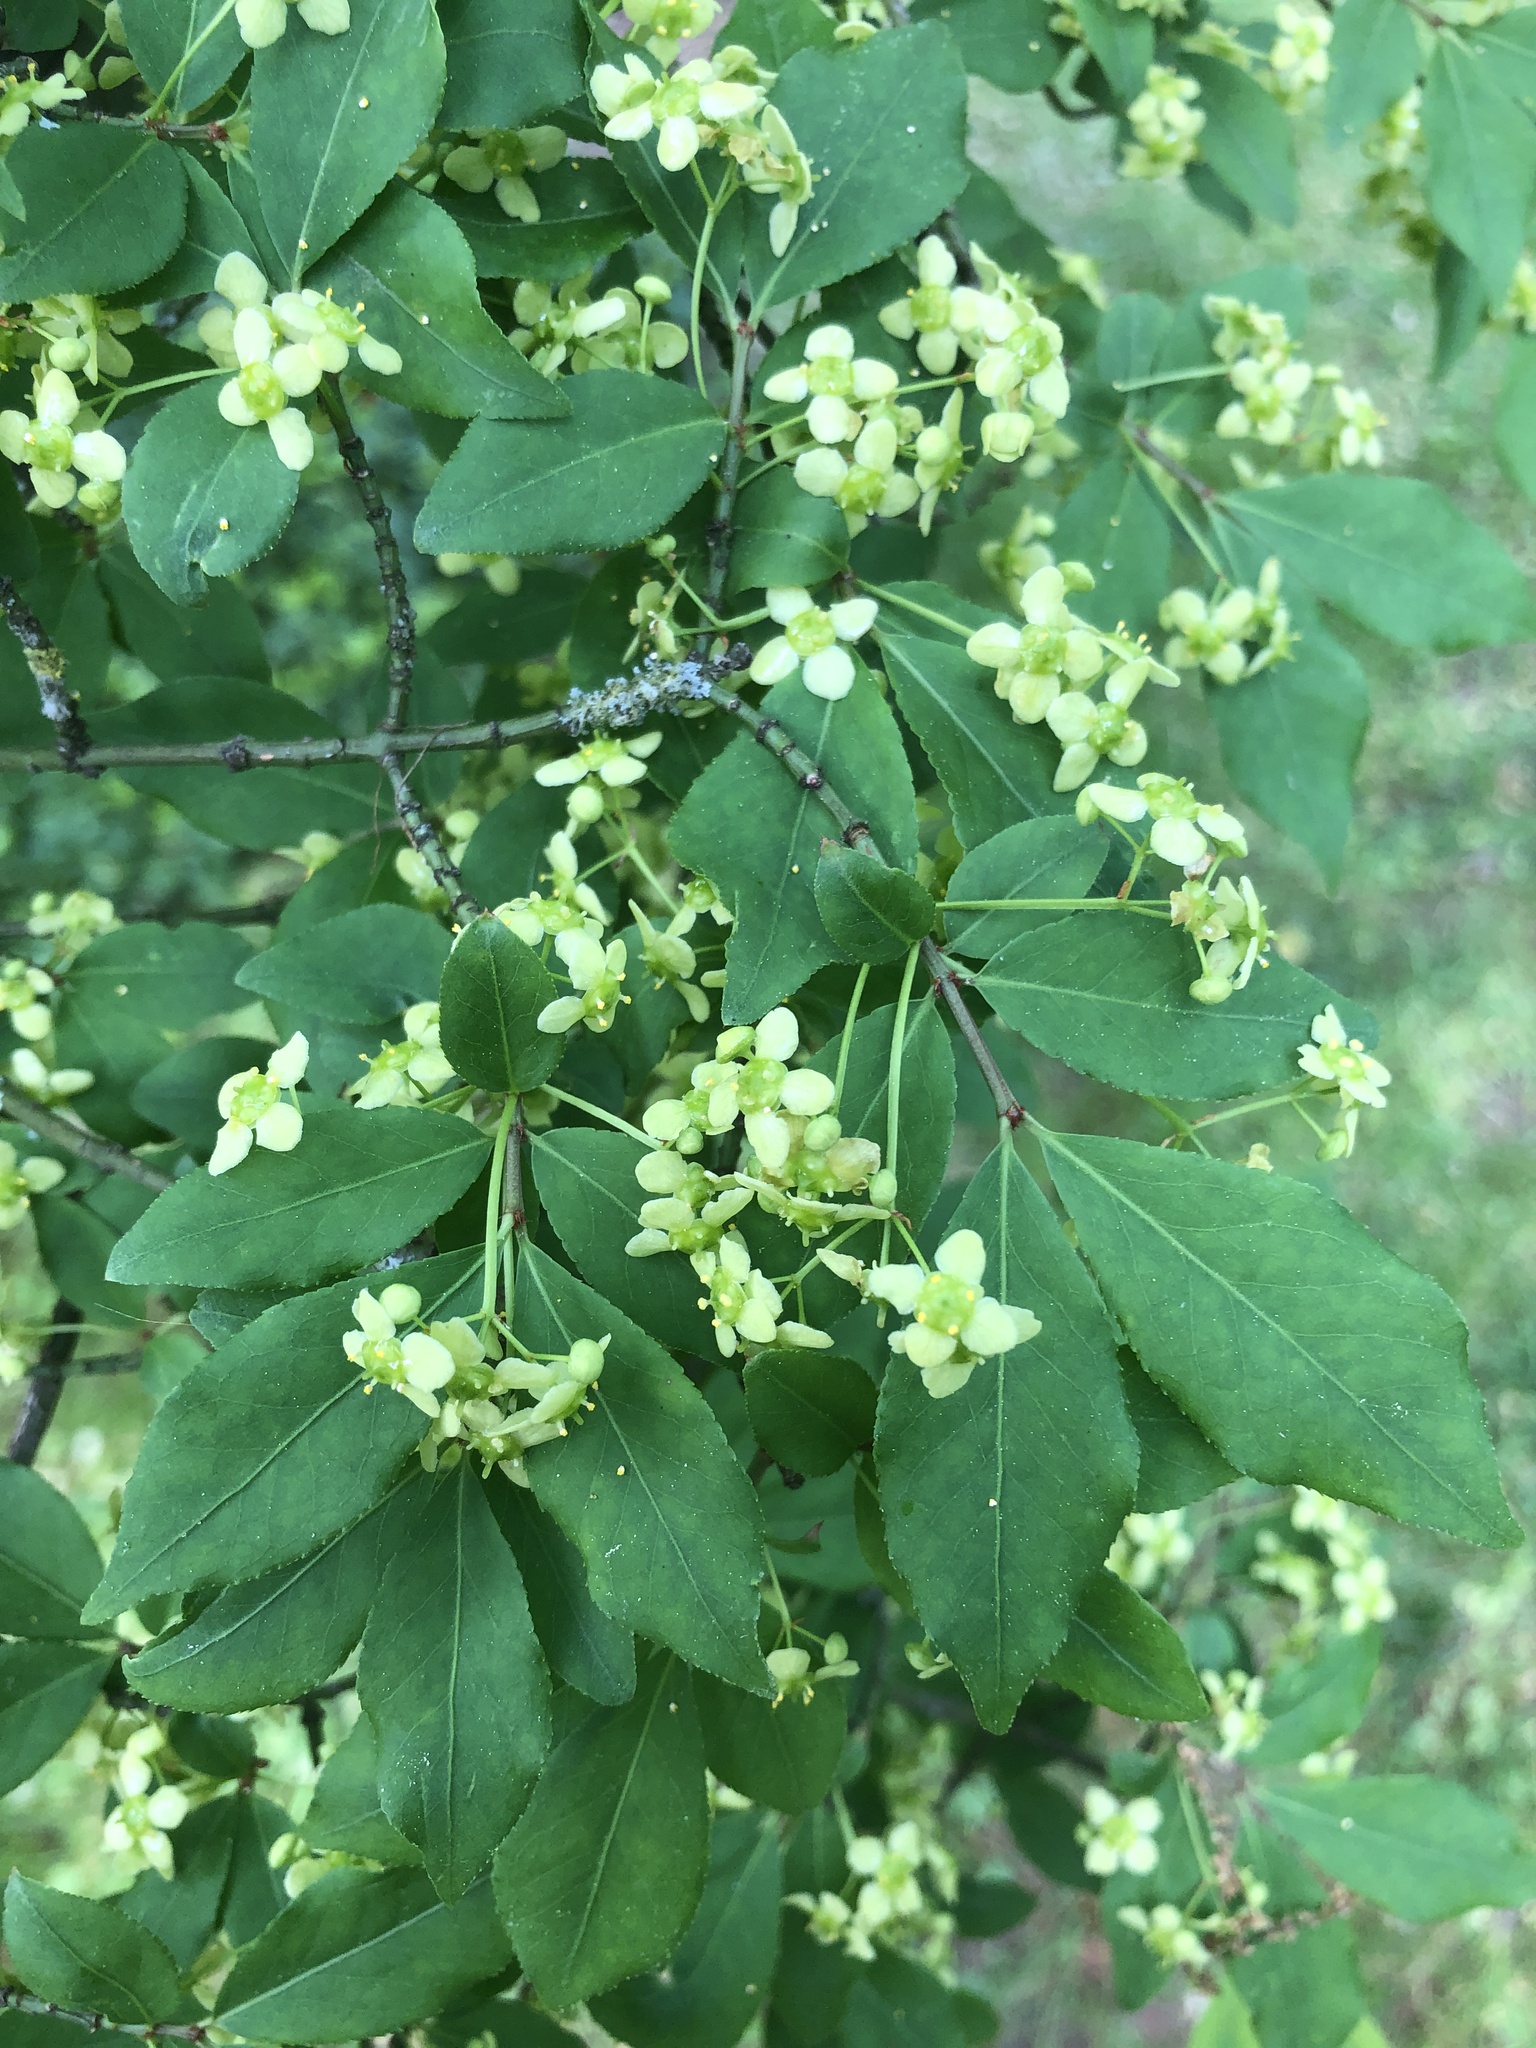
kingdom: Plantae
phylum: Tracheophyta
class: Magnoliopsida
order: Celastrales
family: Celastraceae
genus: Euonymus
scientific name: Euonymus alatus
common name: Winged euonymus
